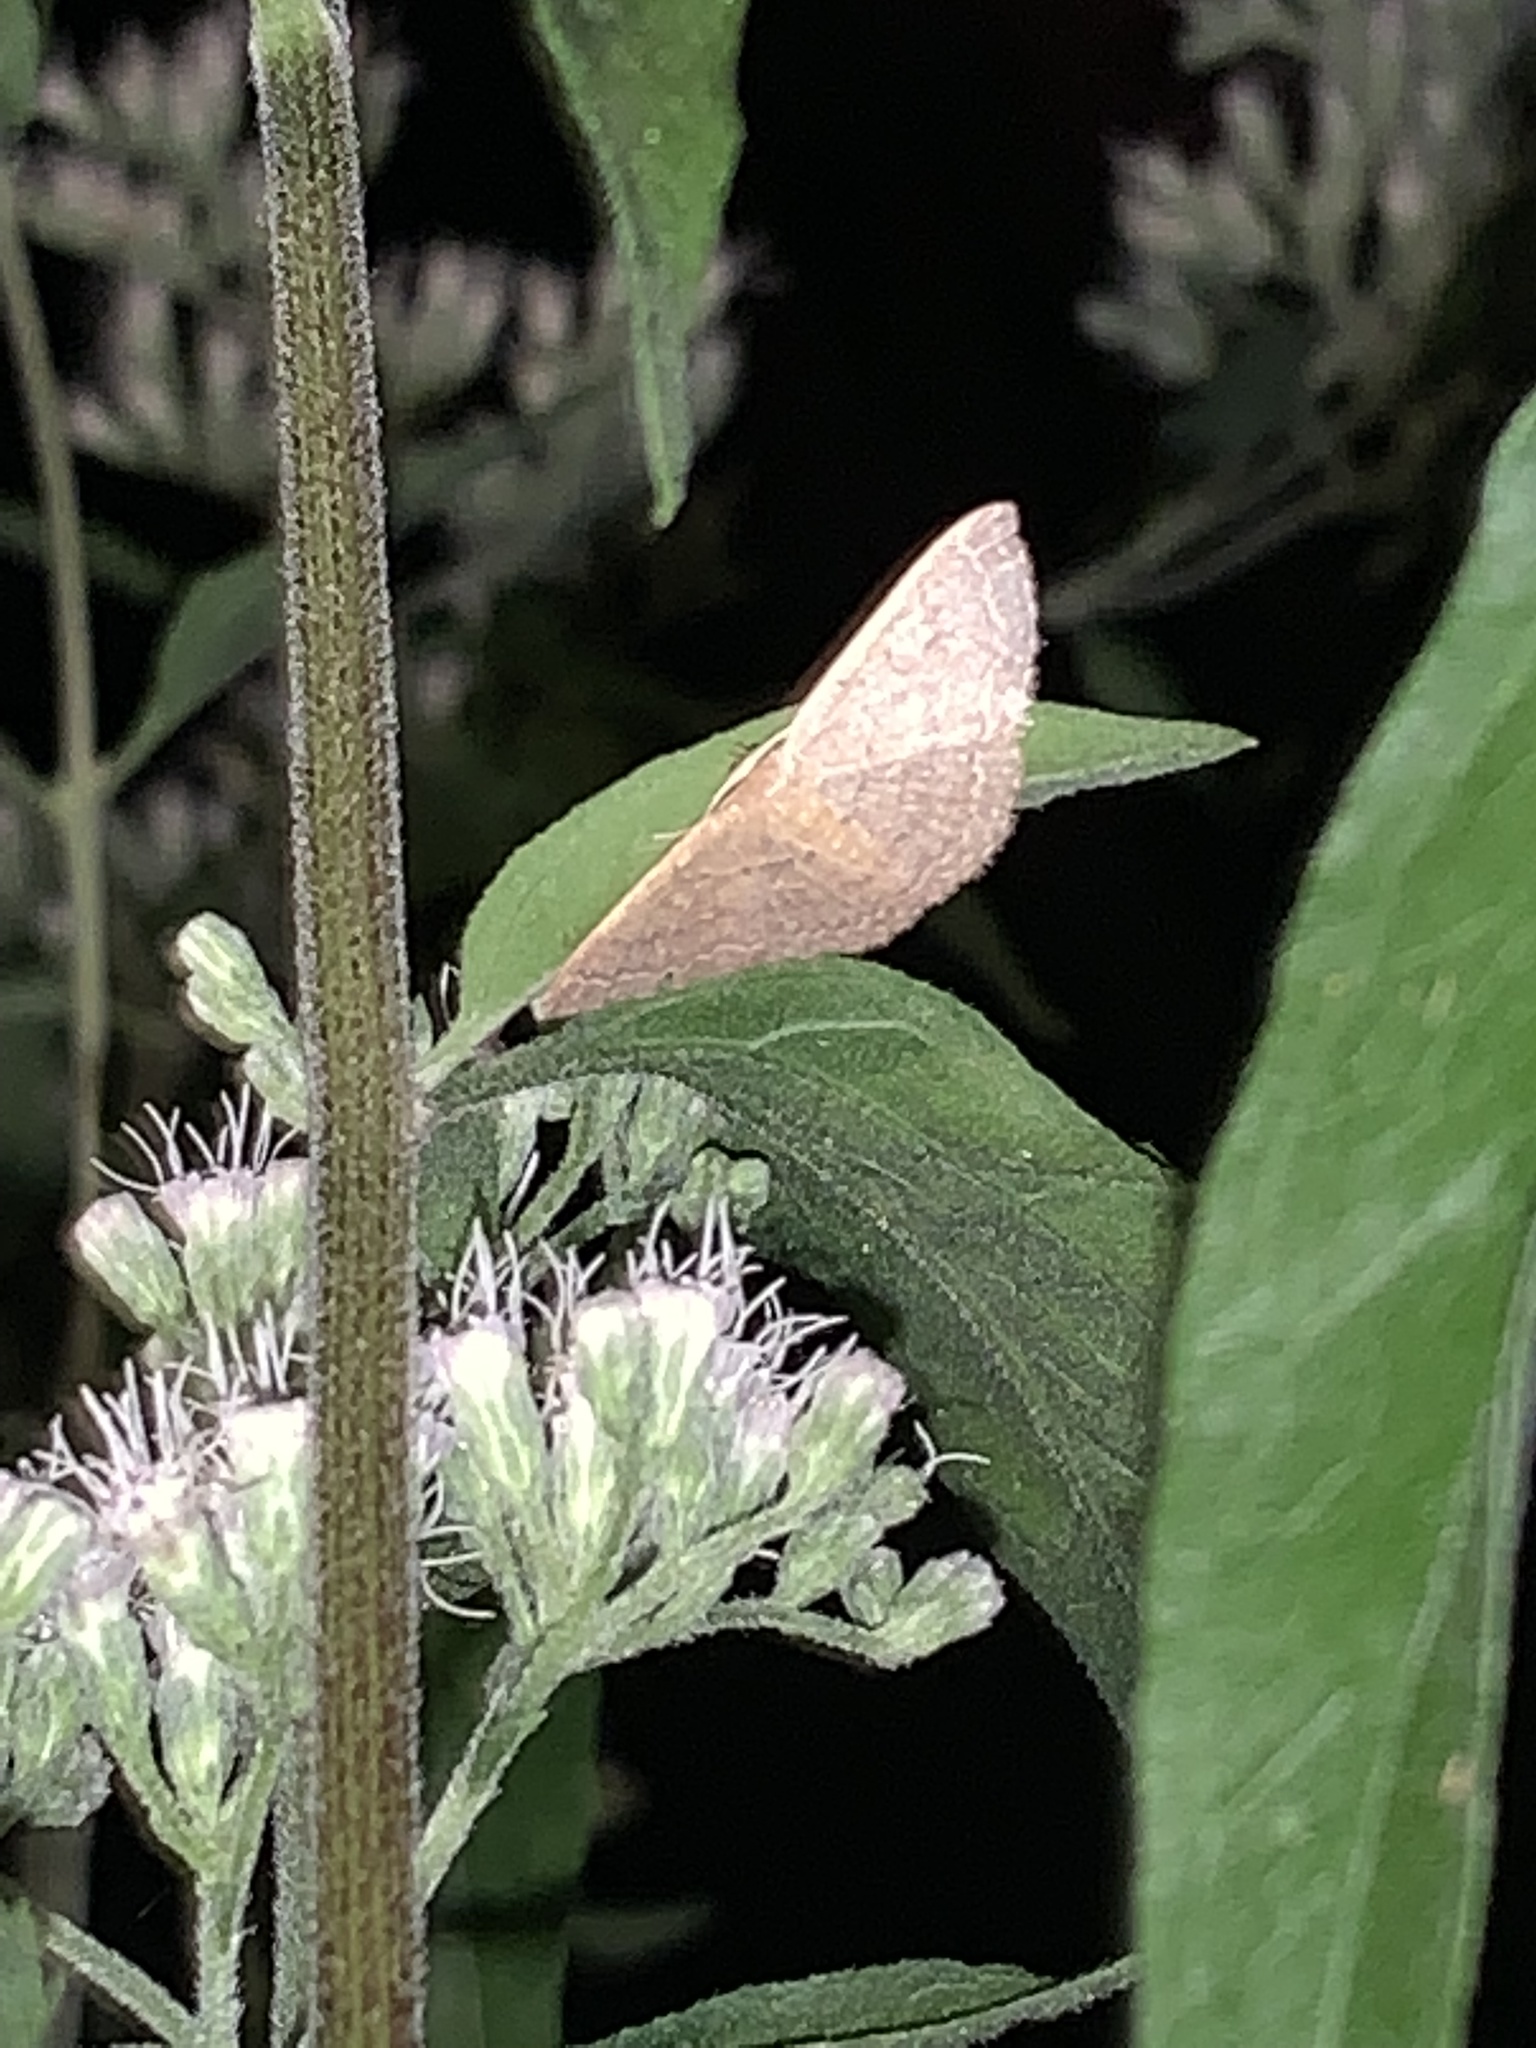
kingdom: Animalia
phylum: Arthropoda
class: Insecta
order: Lepidoptera
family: Geometridae
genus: Pleuroprucha
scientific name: Pleuroprucha insulsaria
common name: Common tan wave
